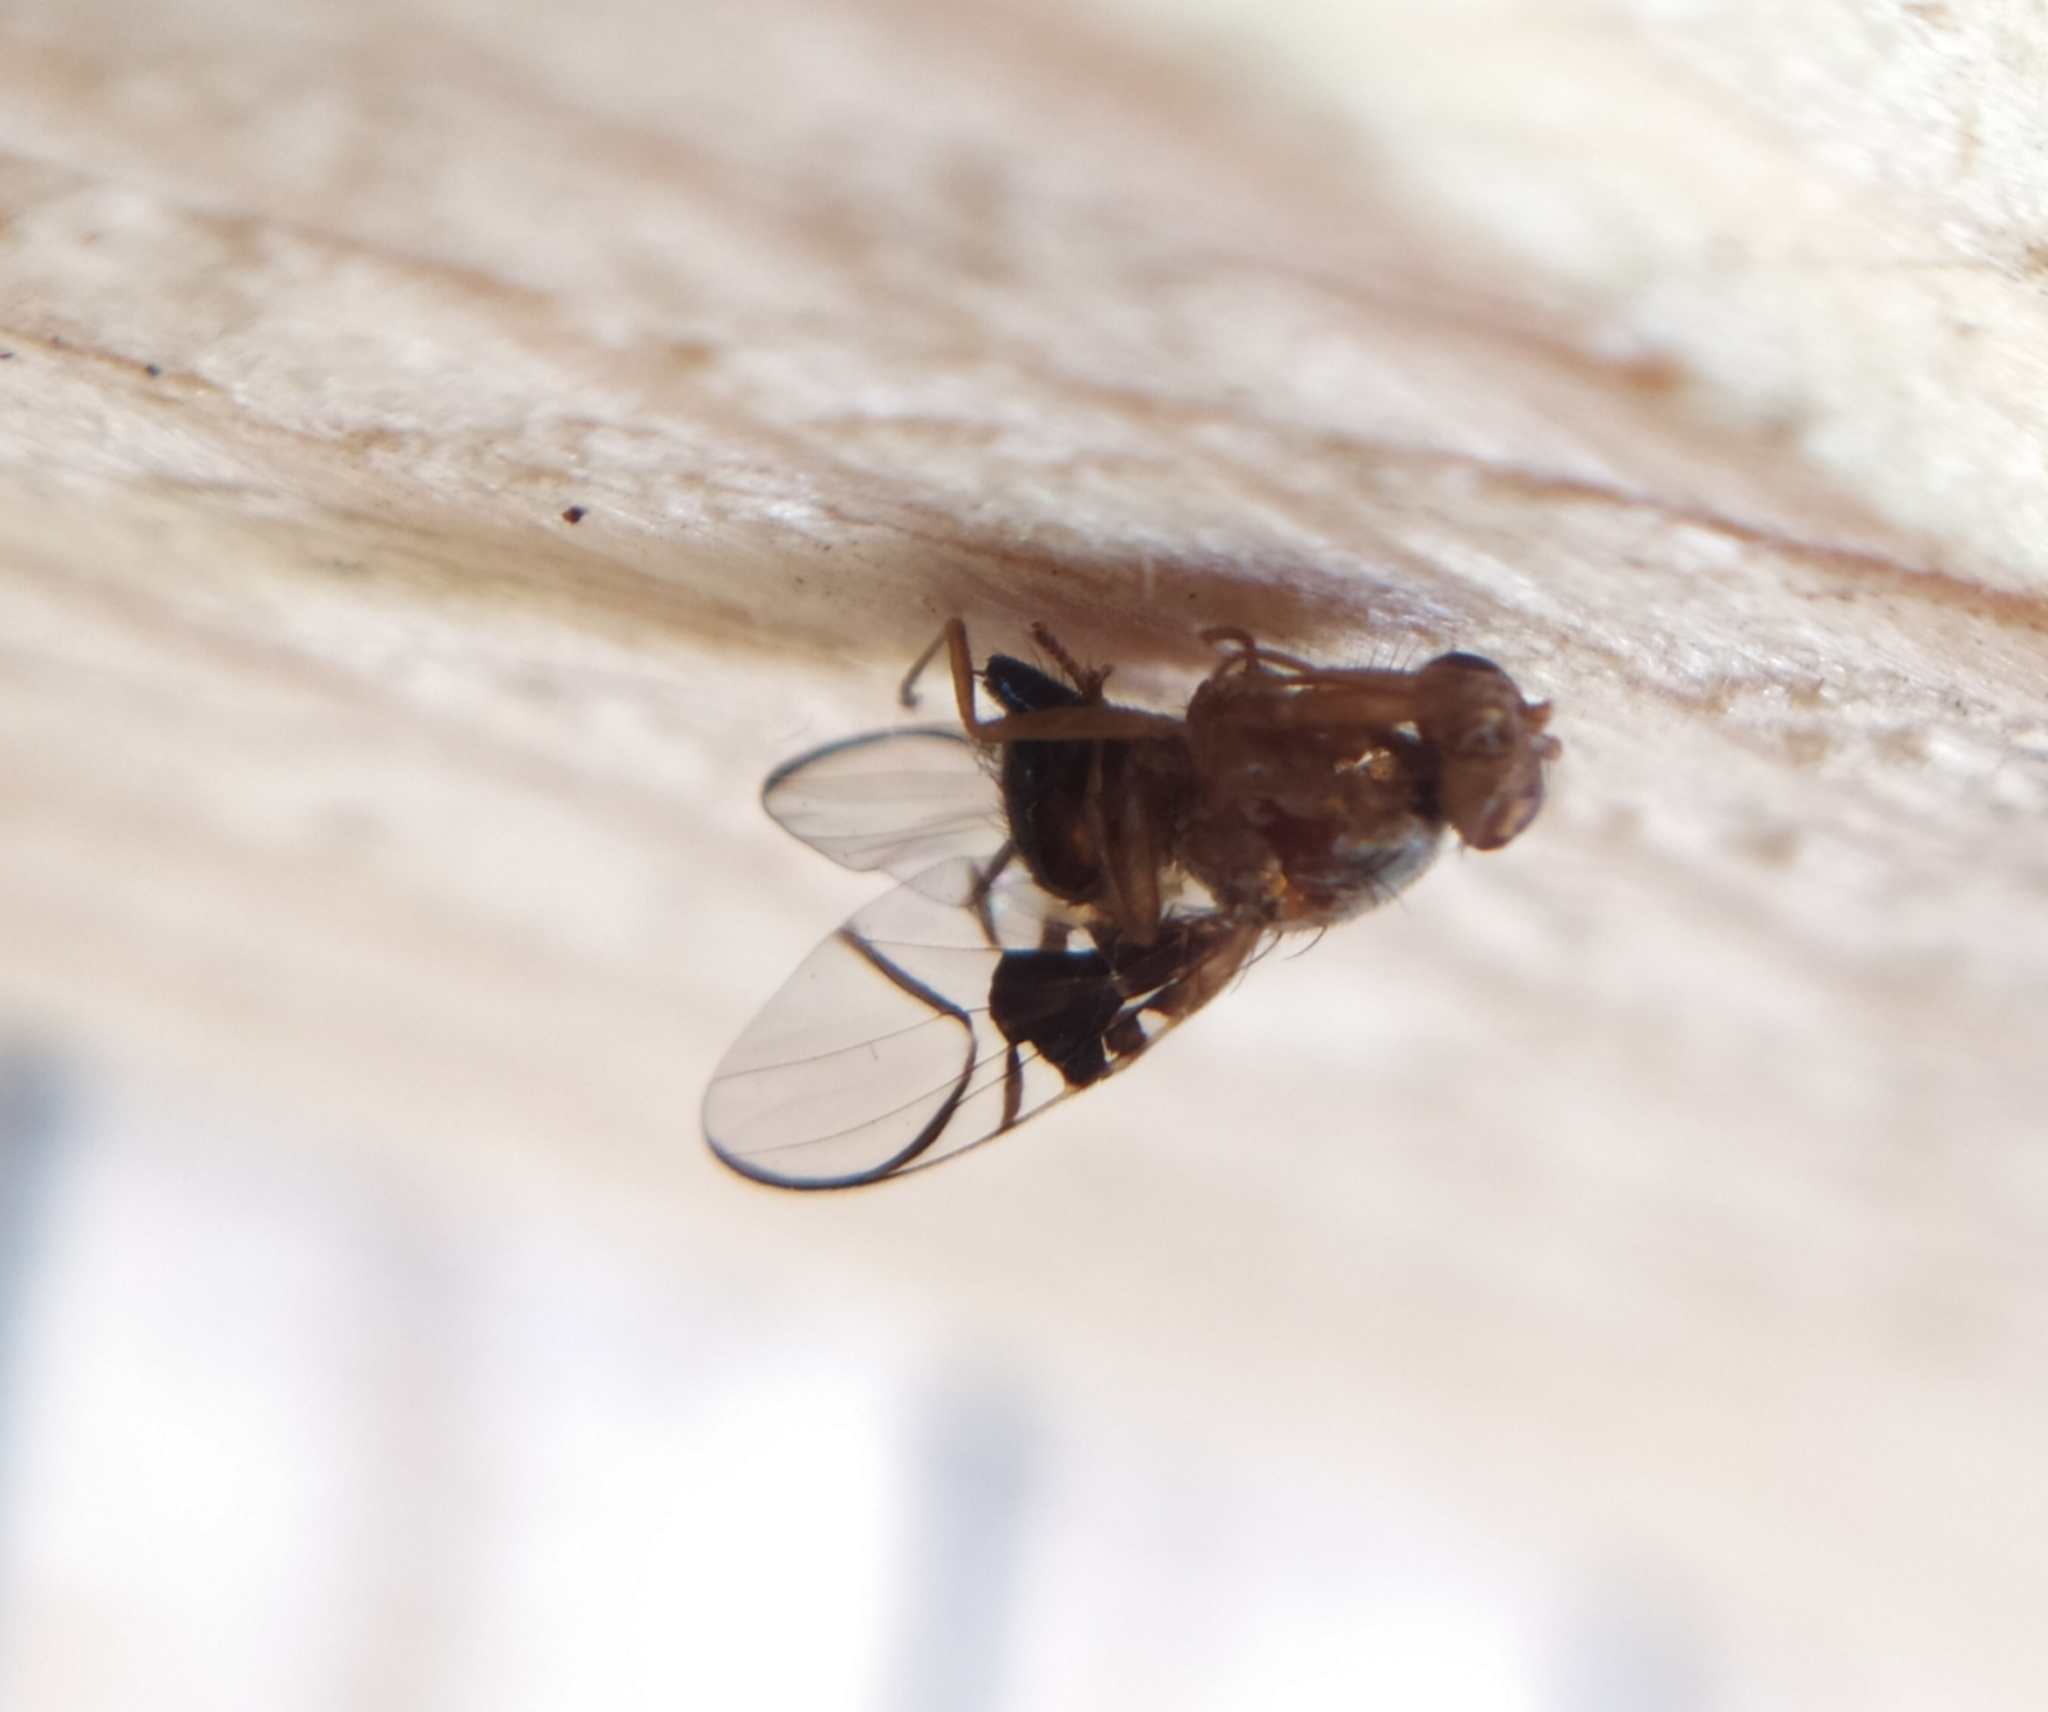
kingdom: Animalia
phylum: Arthropoda
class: Insecta
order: Diptera
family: Tephritidae
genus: Anomoia
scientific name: Anomoia purmunda
